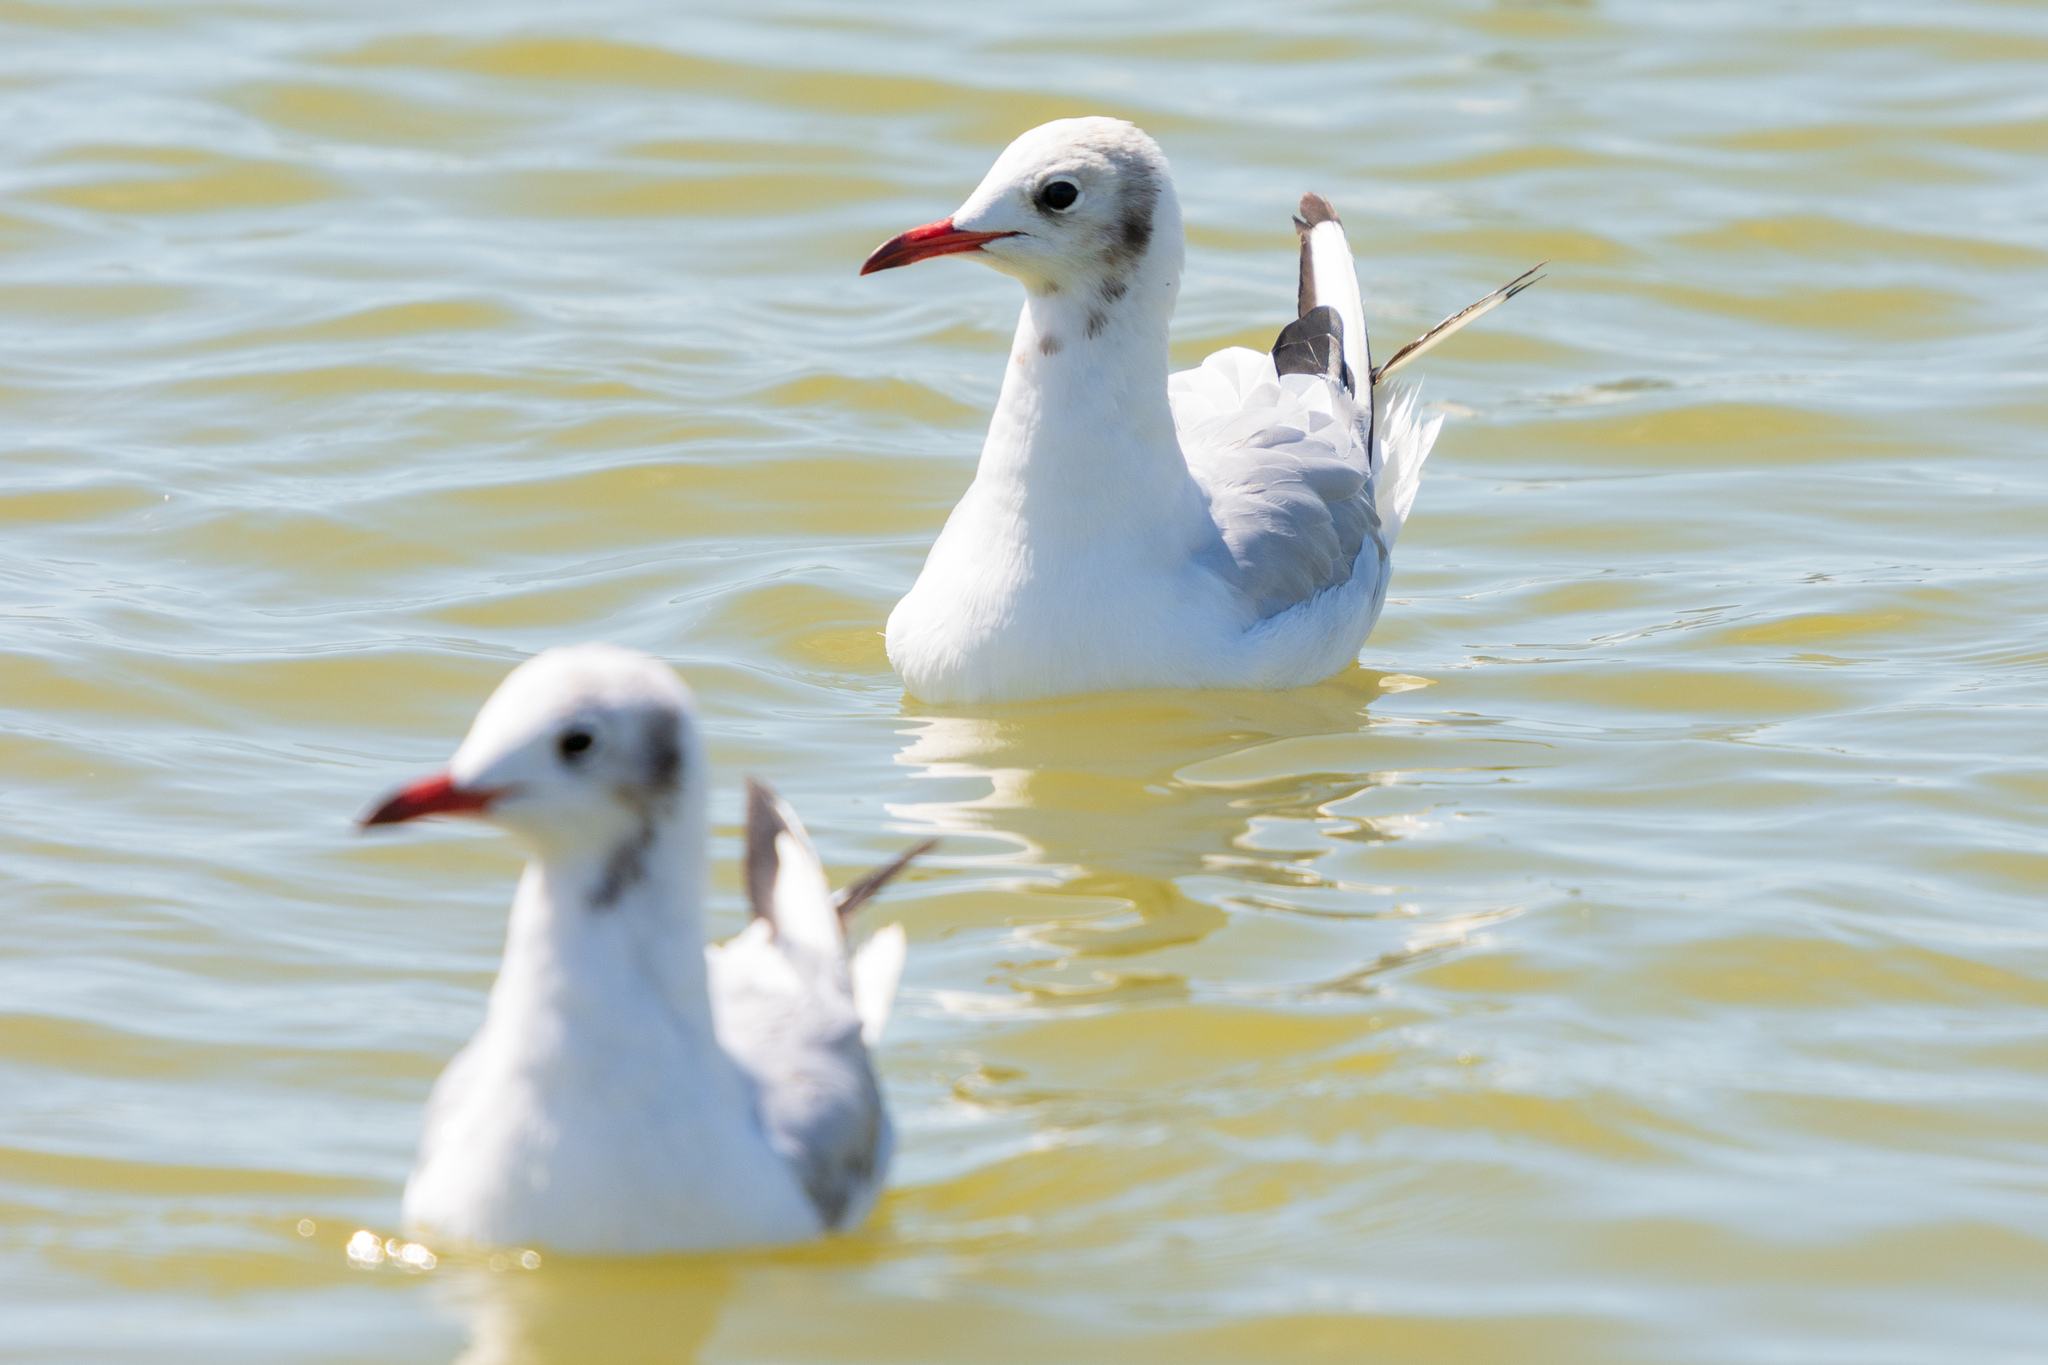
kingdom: Animalia
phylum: Chordata
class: Aves
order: Charadriiformes
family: Laridae
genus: Chroicocephalus
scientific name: Chroicocephalus ridibundus
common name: Black-headed gull
